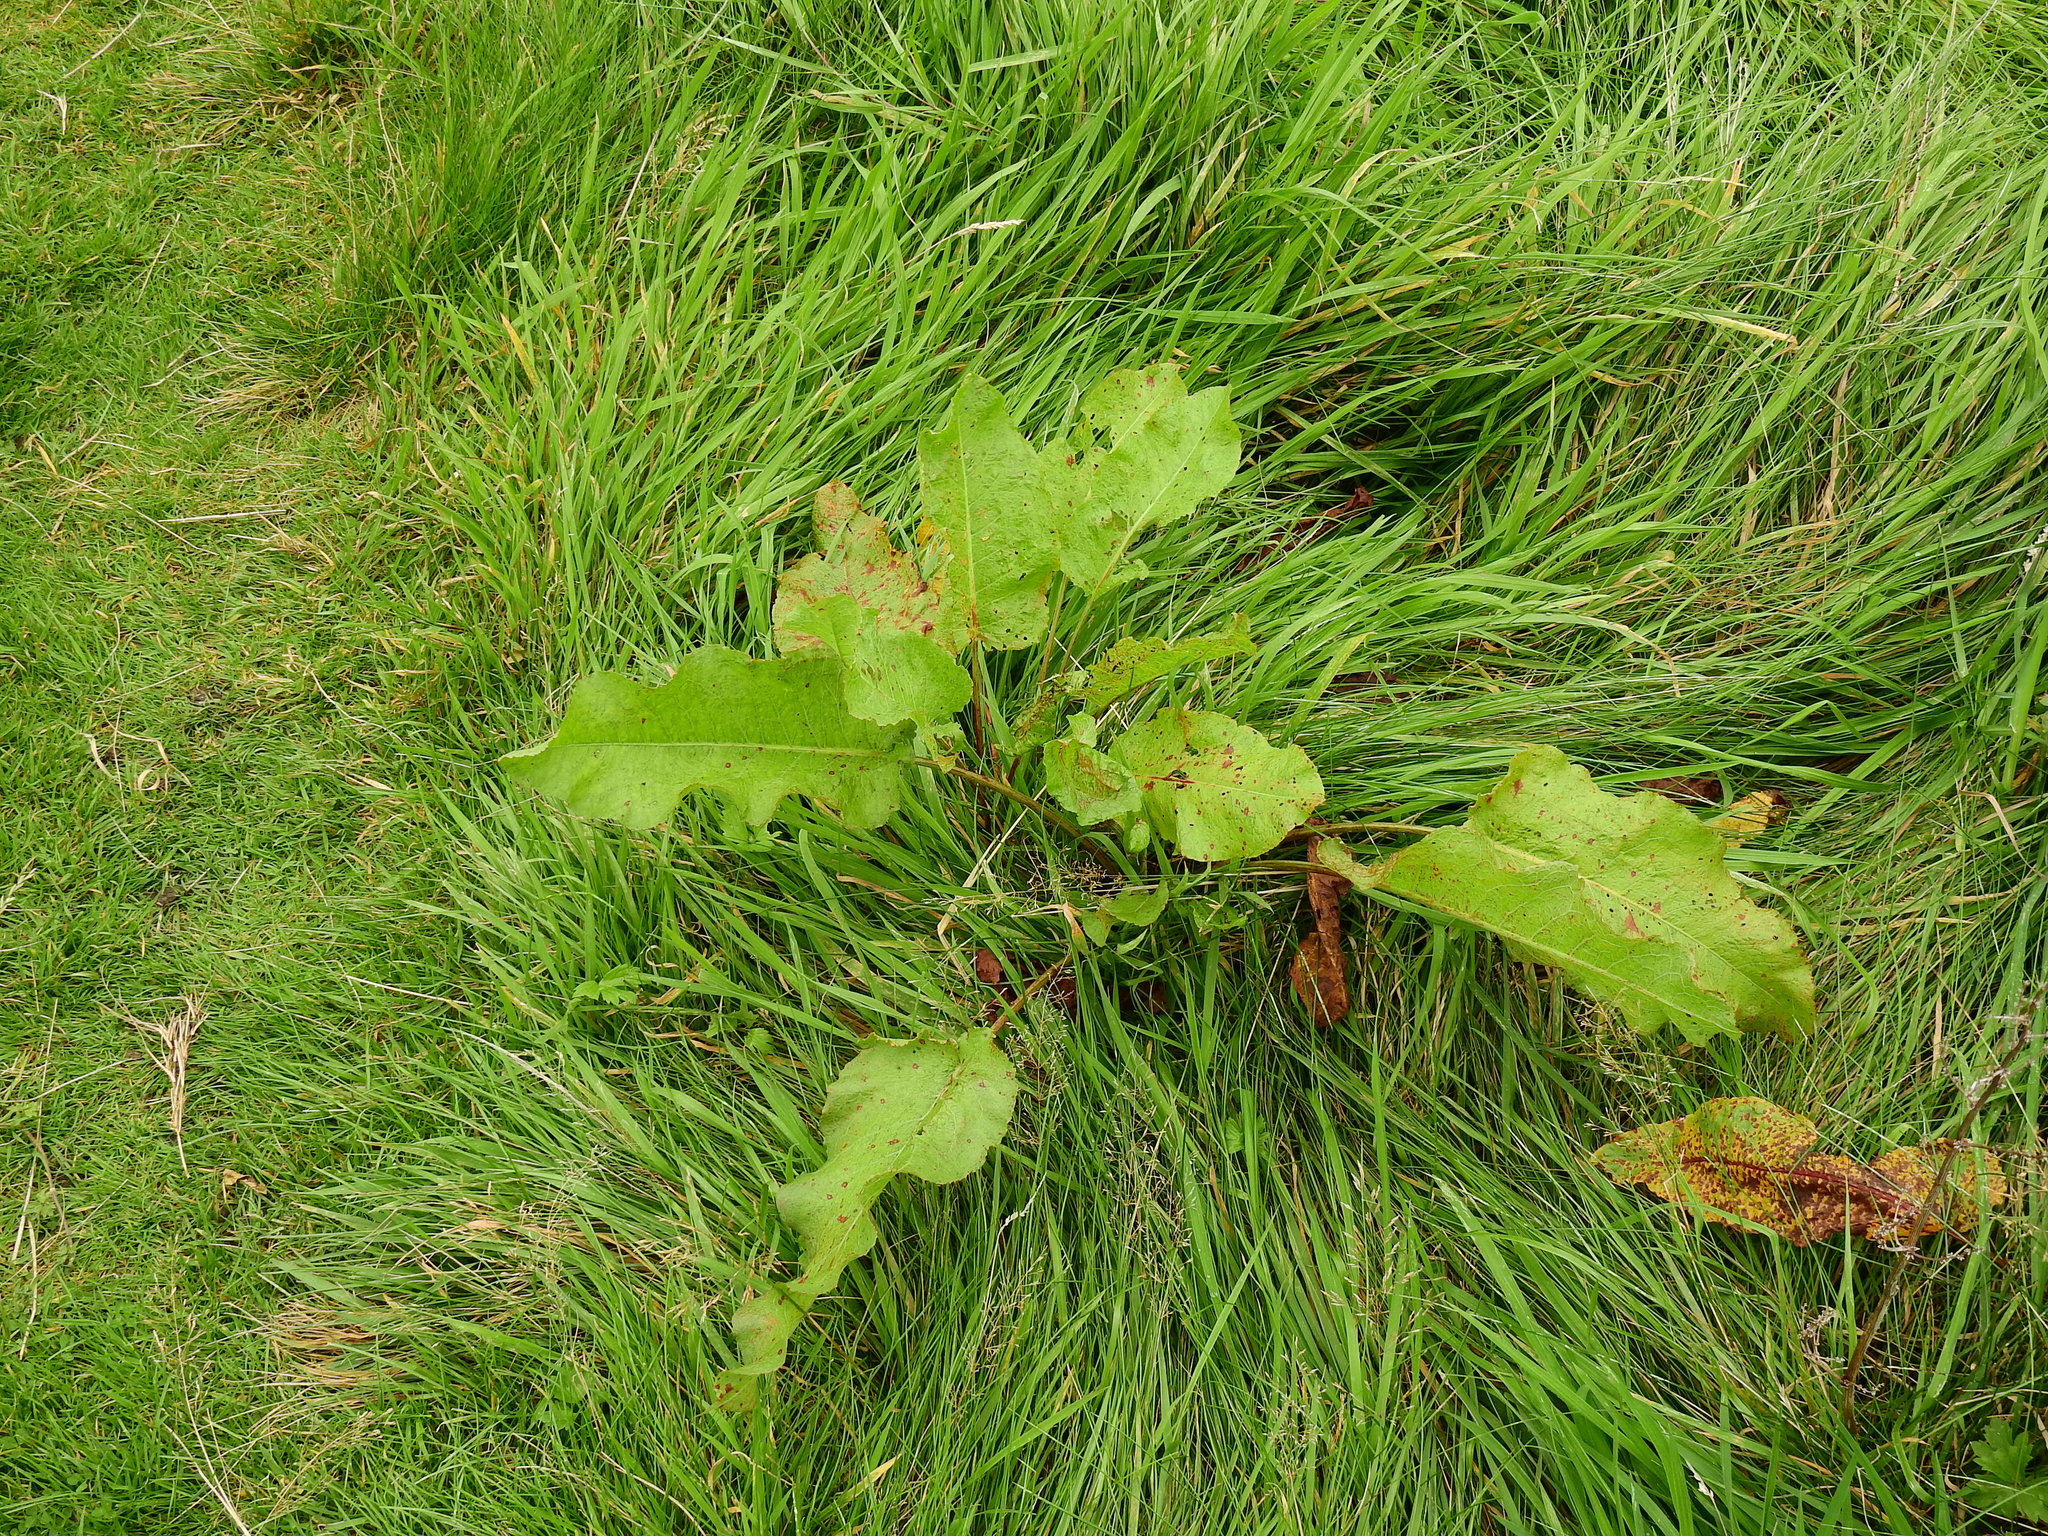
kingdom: Plantae
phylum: Tracheophyta
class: Magnoliopsida
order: Caryophyllales
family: Polygonaceae
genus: Rumex
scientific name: Rumex obtusifolius
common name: Bitter dock
